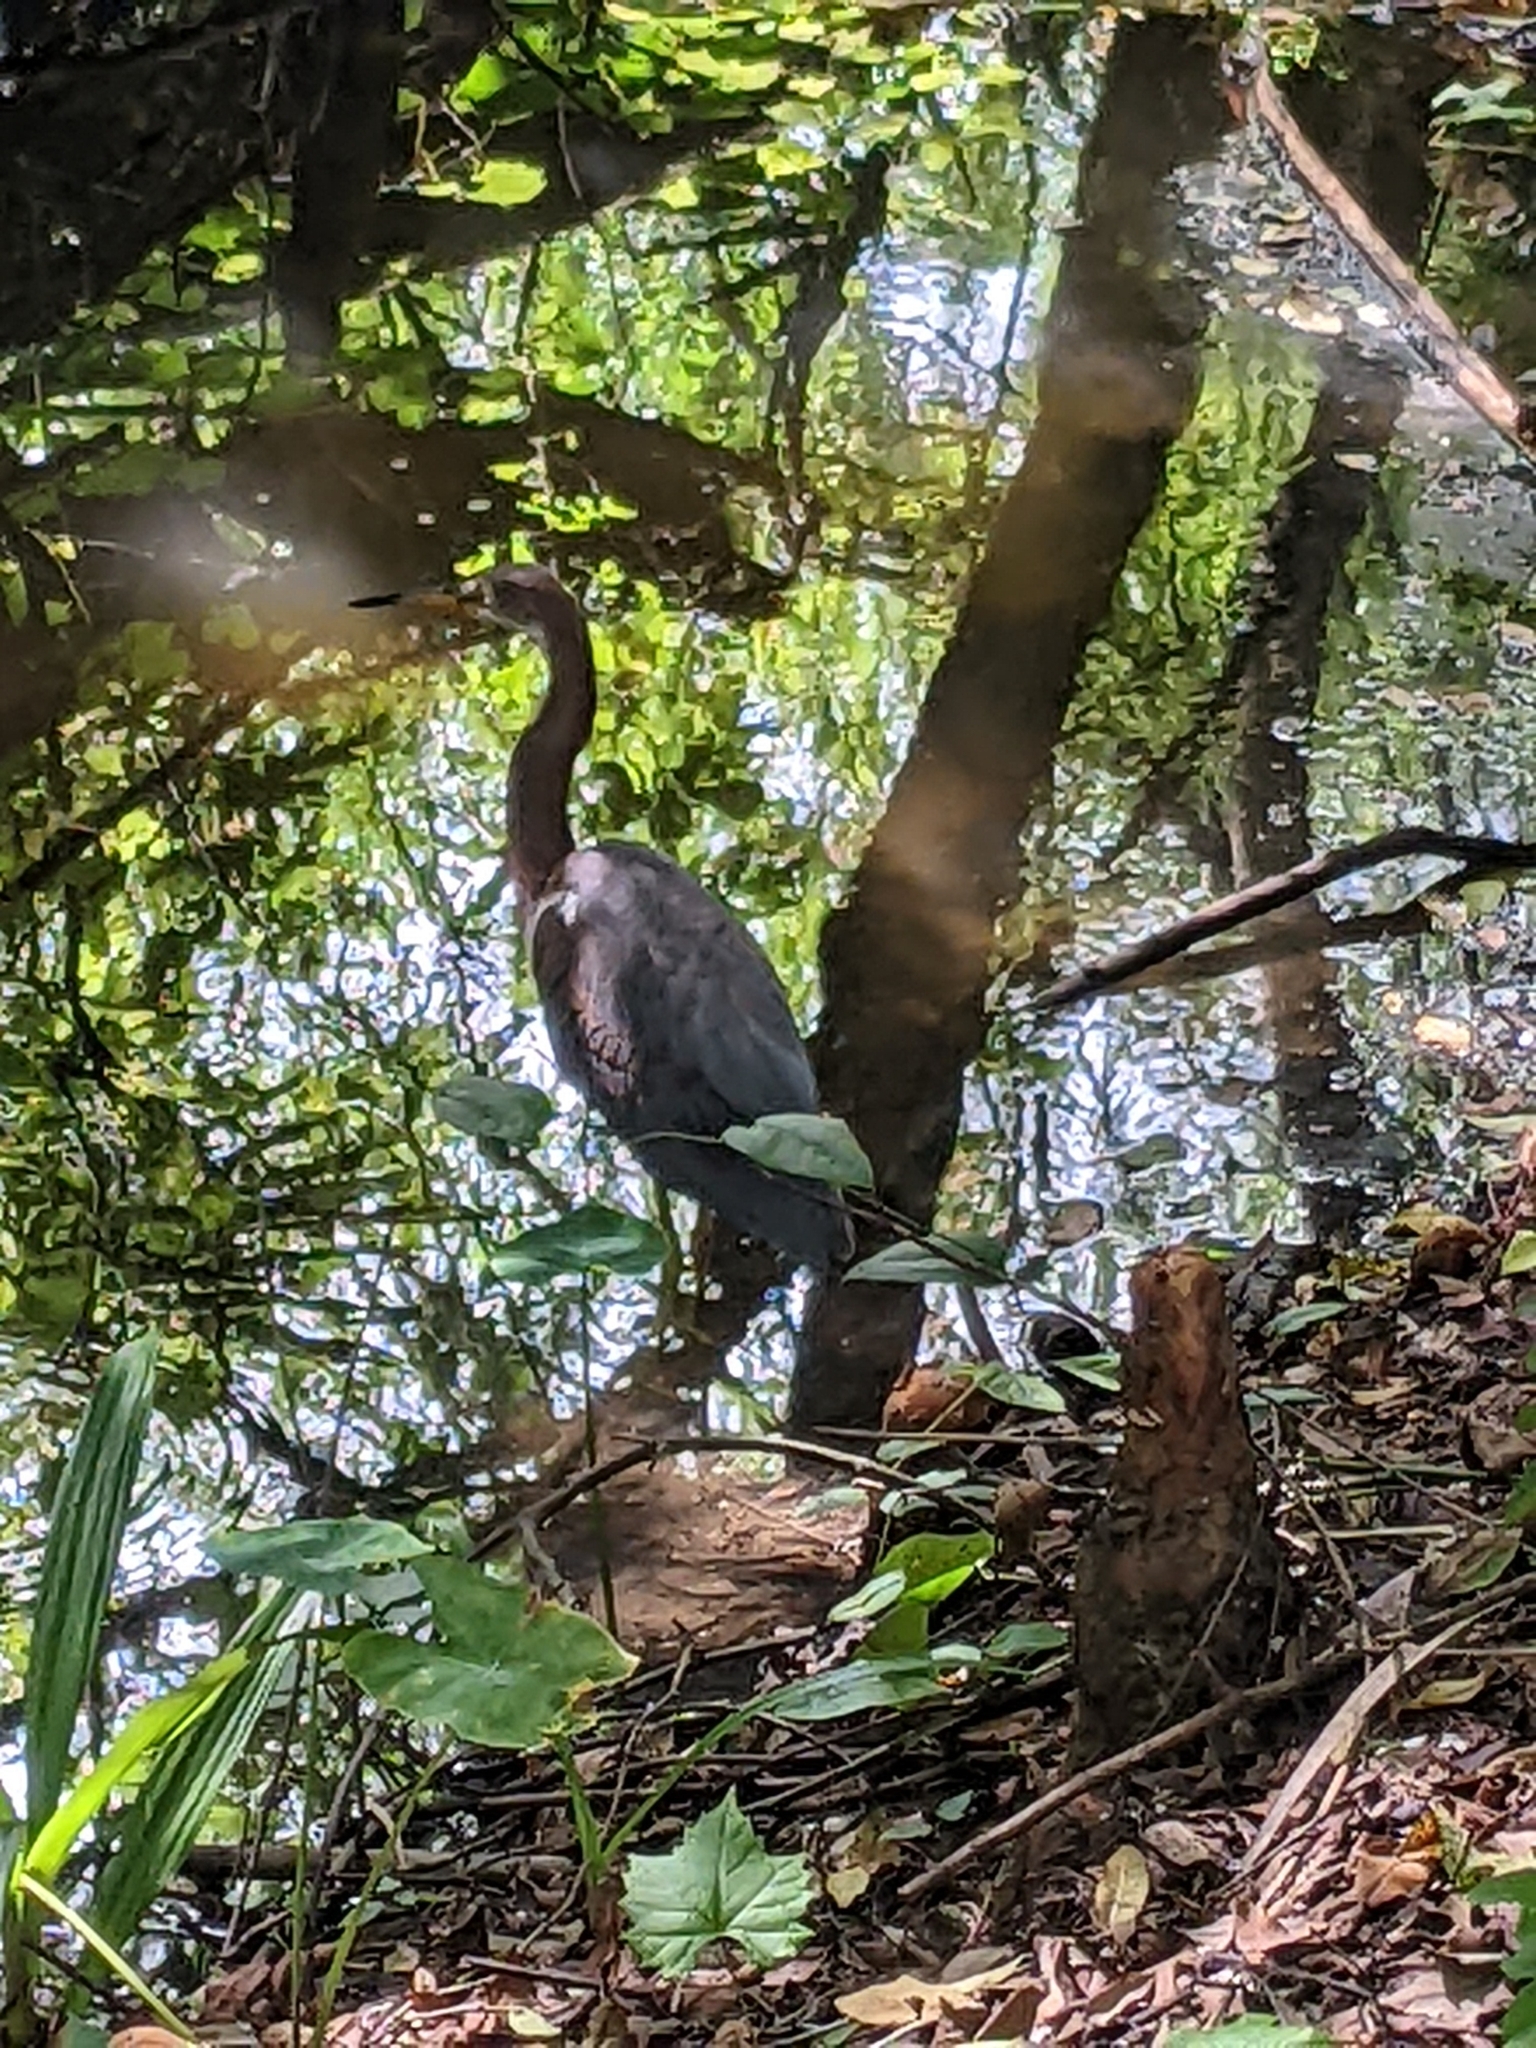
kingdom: Animalia
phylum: Chordata
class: Aves
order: Pelecaniformes
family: Ardeidae
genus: Egretta
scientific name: Egretta tricolor
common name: Tricolored heron
